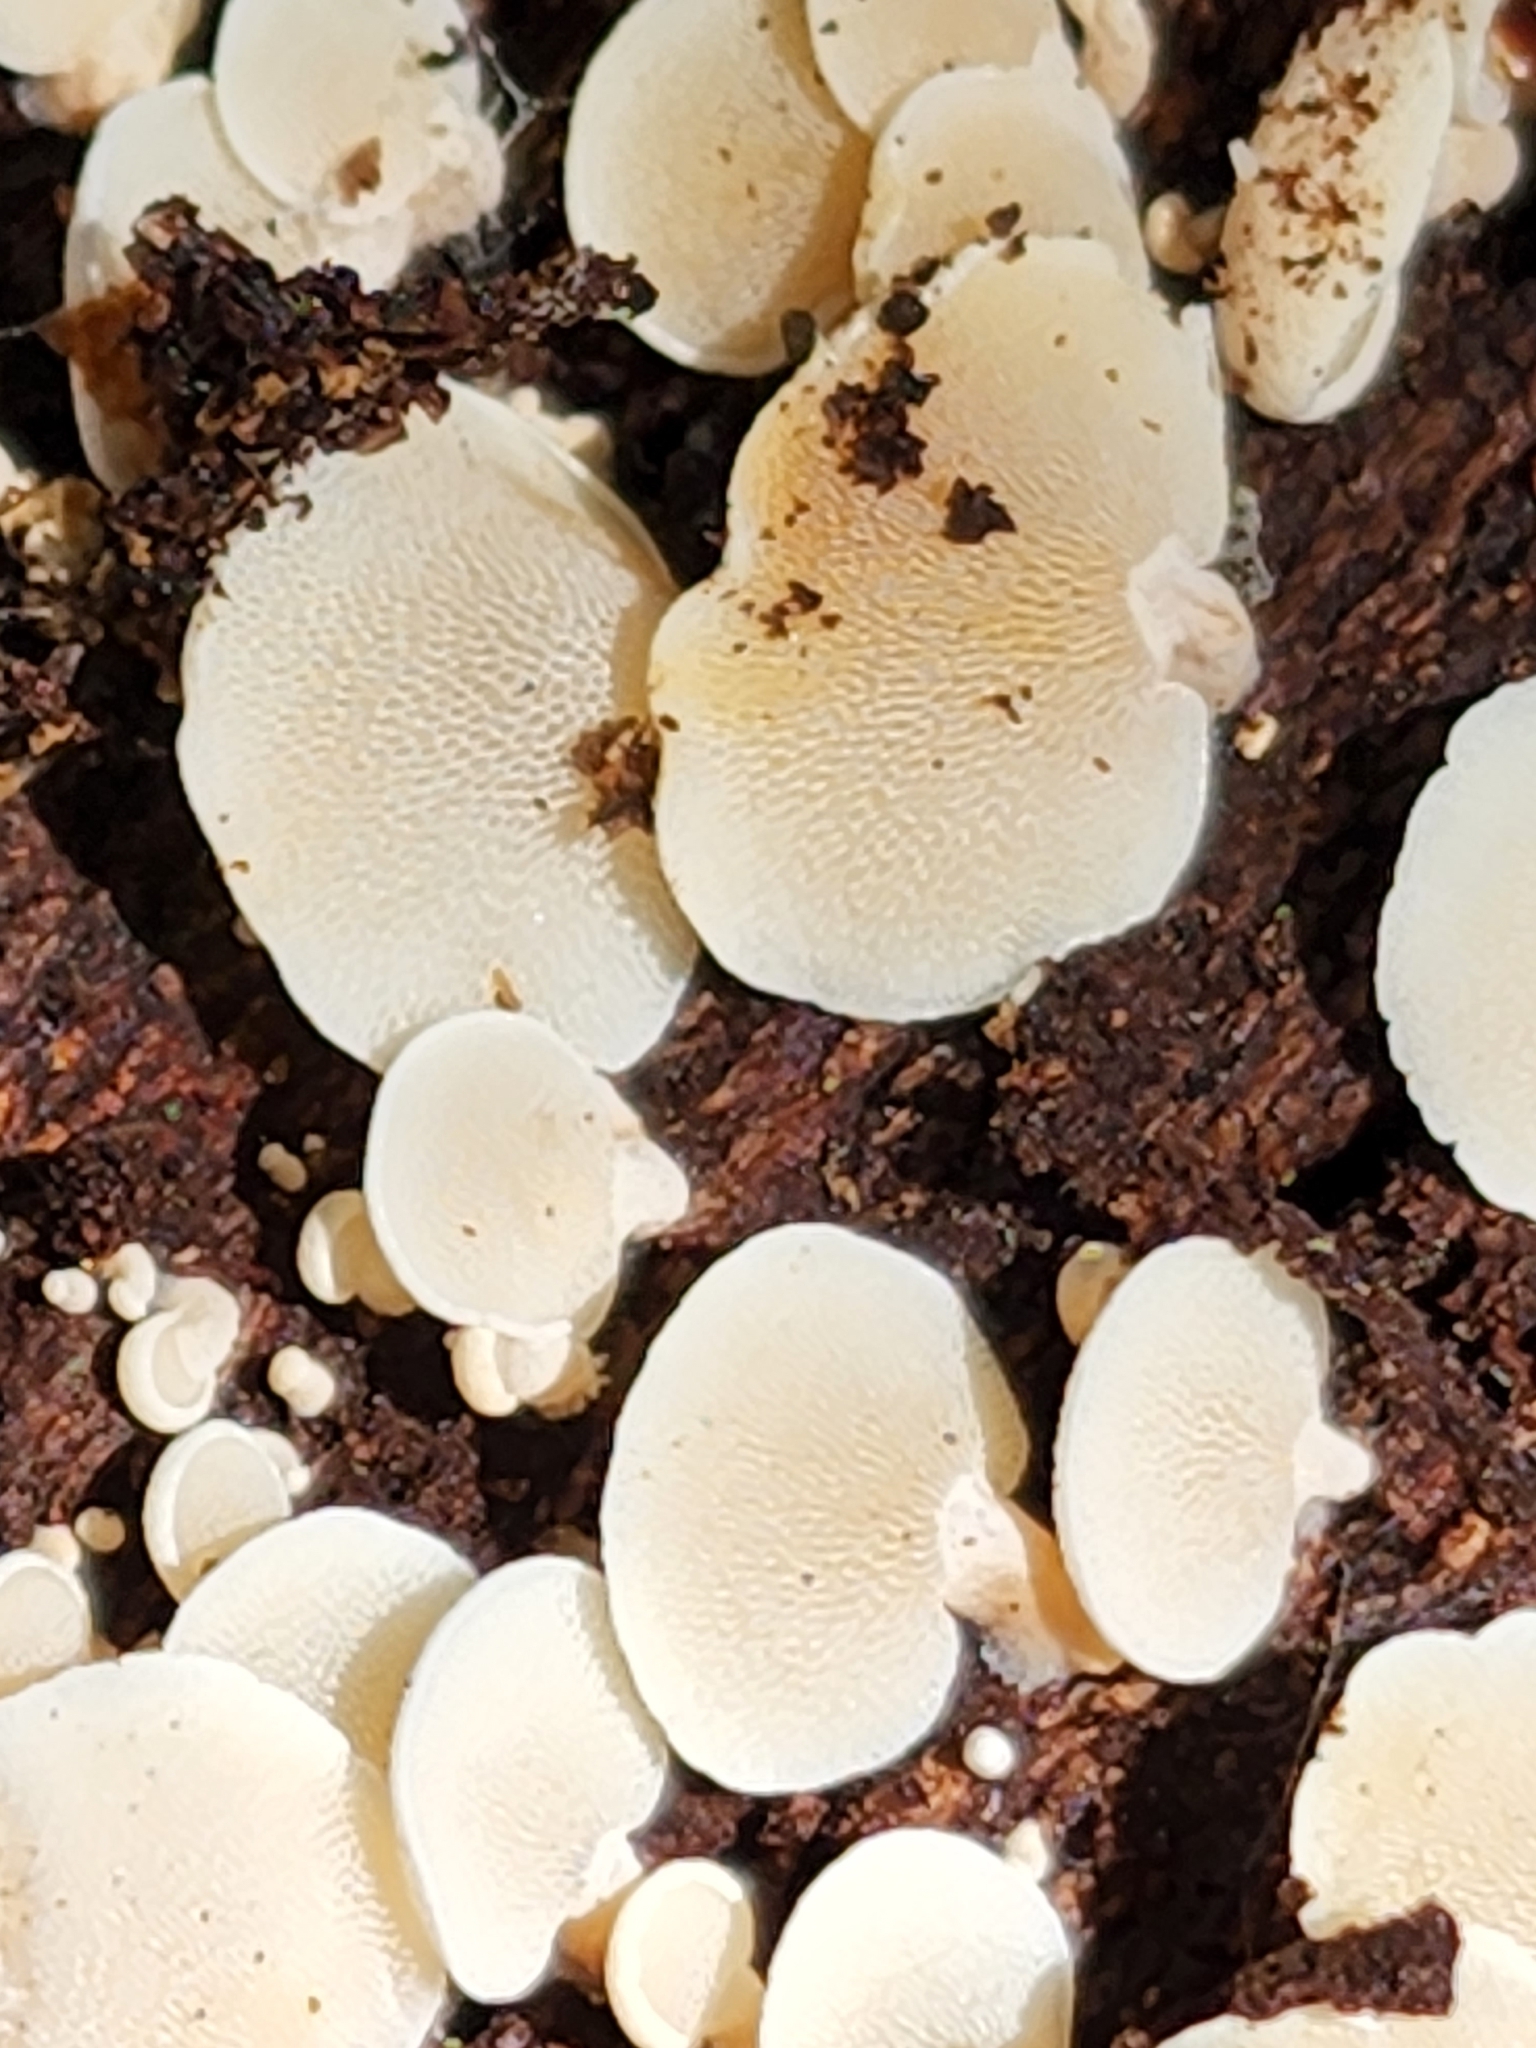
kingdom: Fungi
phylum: Basidiomycota
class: Agaricomycetes
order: Agaricales
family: Mycenaceae
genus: Panellus
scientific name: Panellus pusillus
